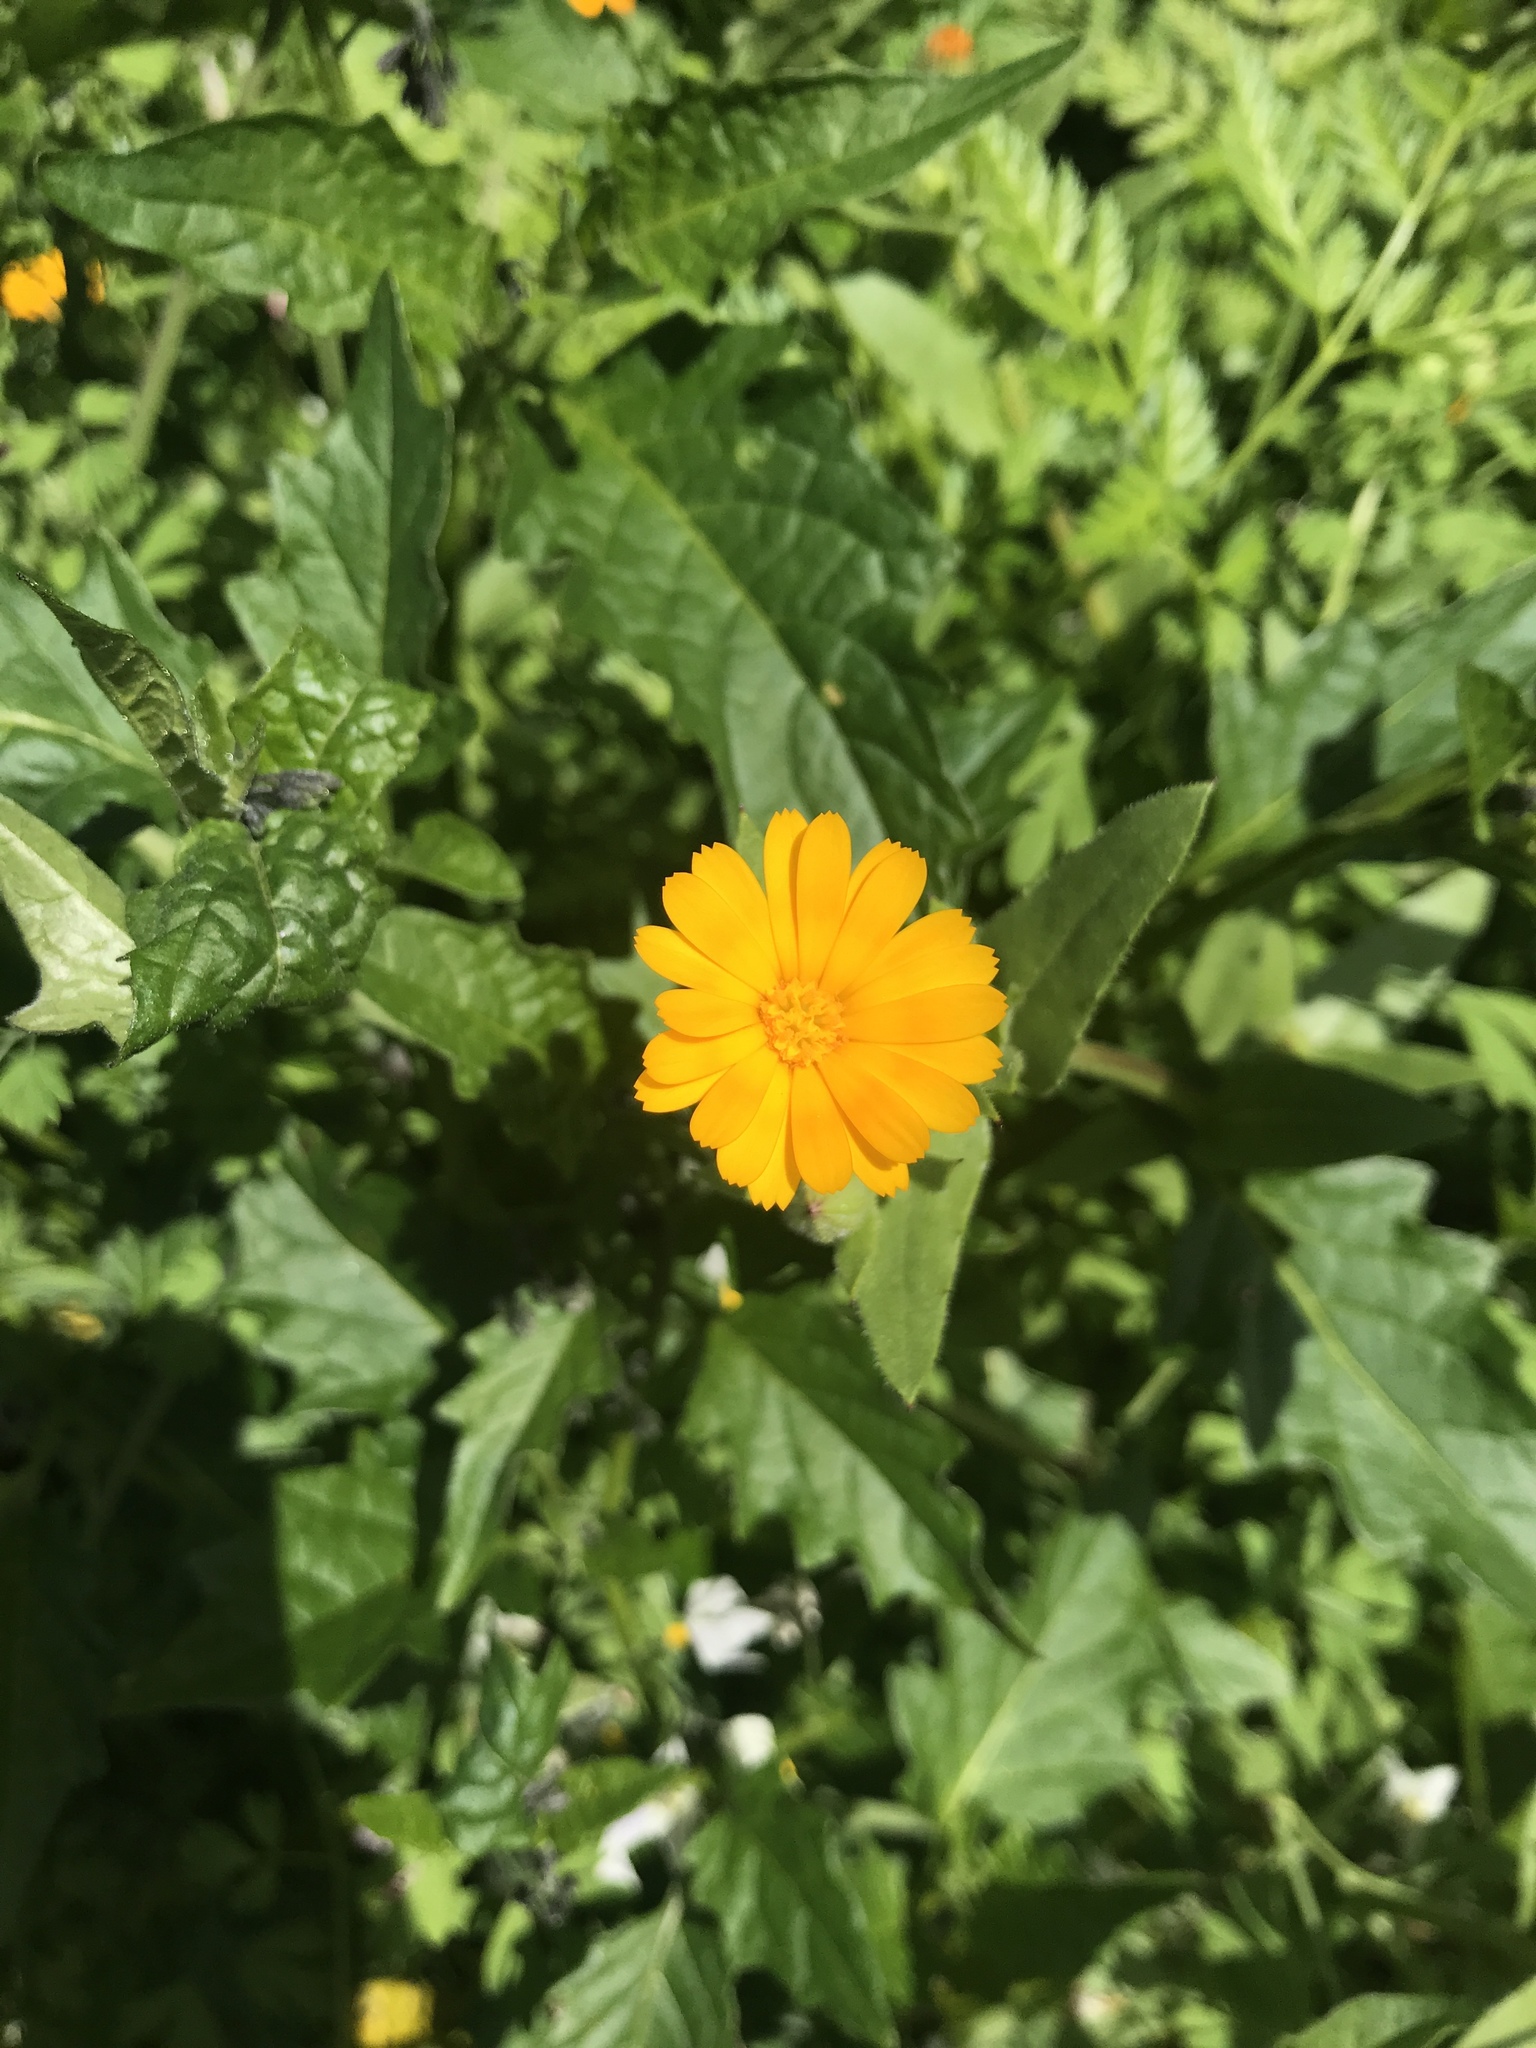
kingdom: Plantae
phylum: Tracheophyta
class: Magnoliopsida
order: Asterales
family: Asteraceae
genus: Calendula
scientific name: Calendula arvensis
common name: Field marigold
